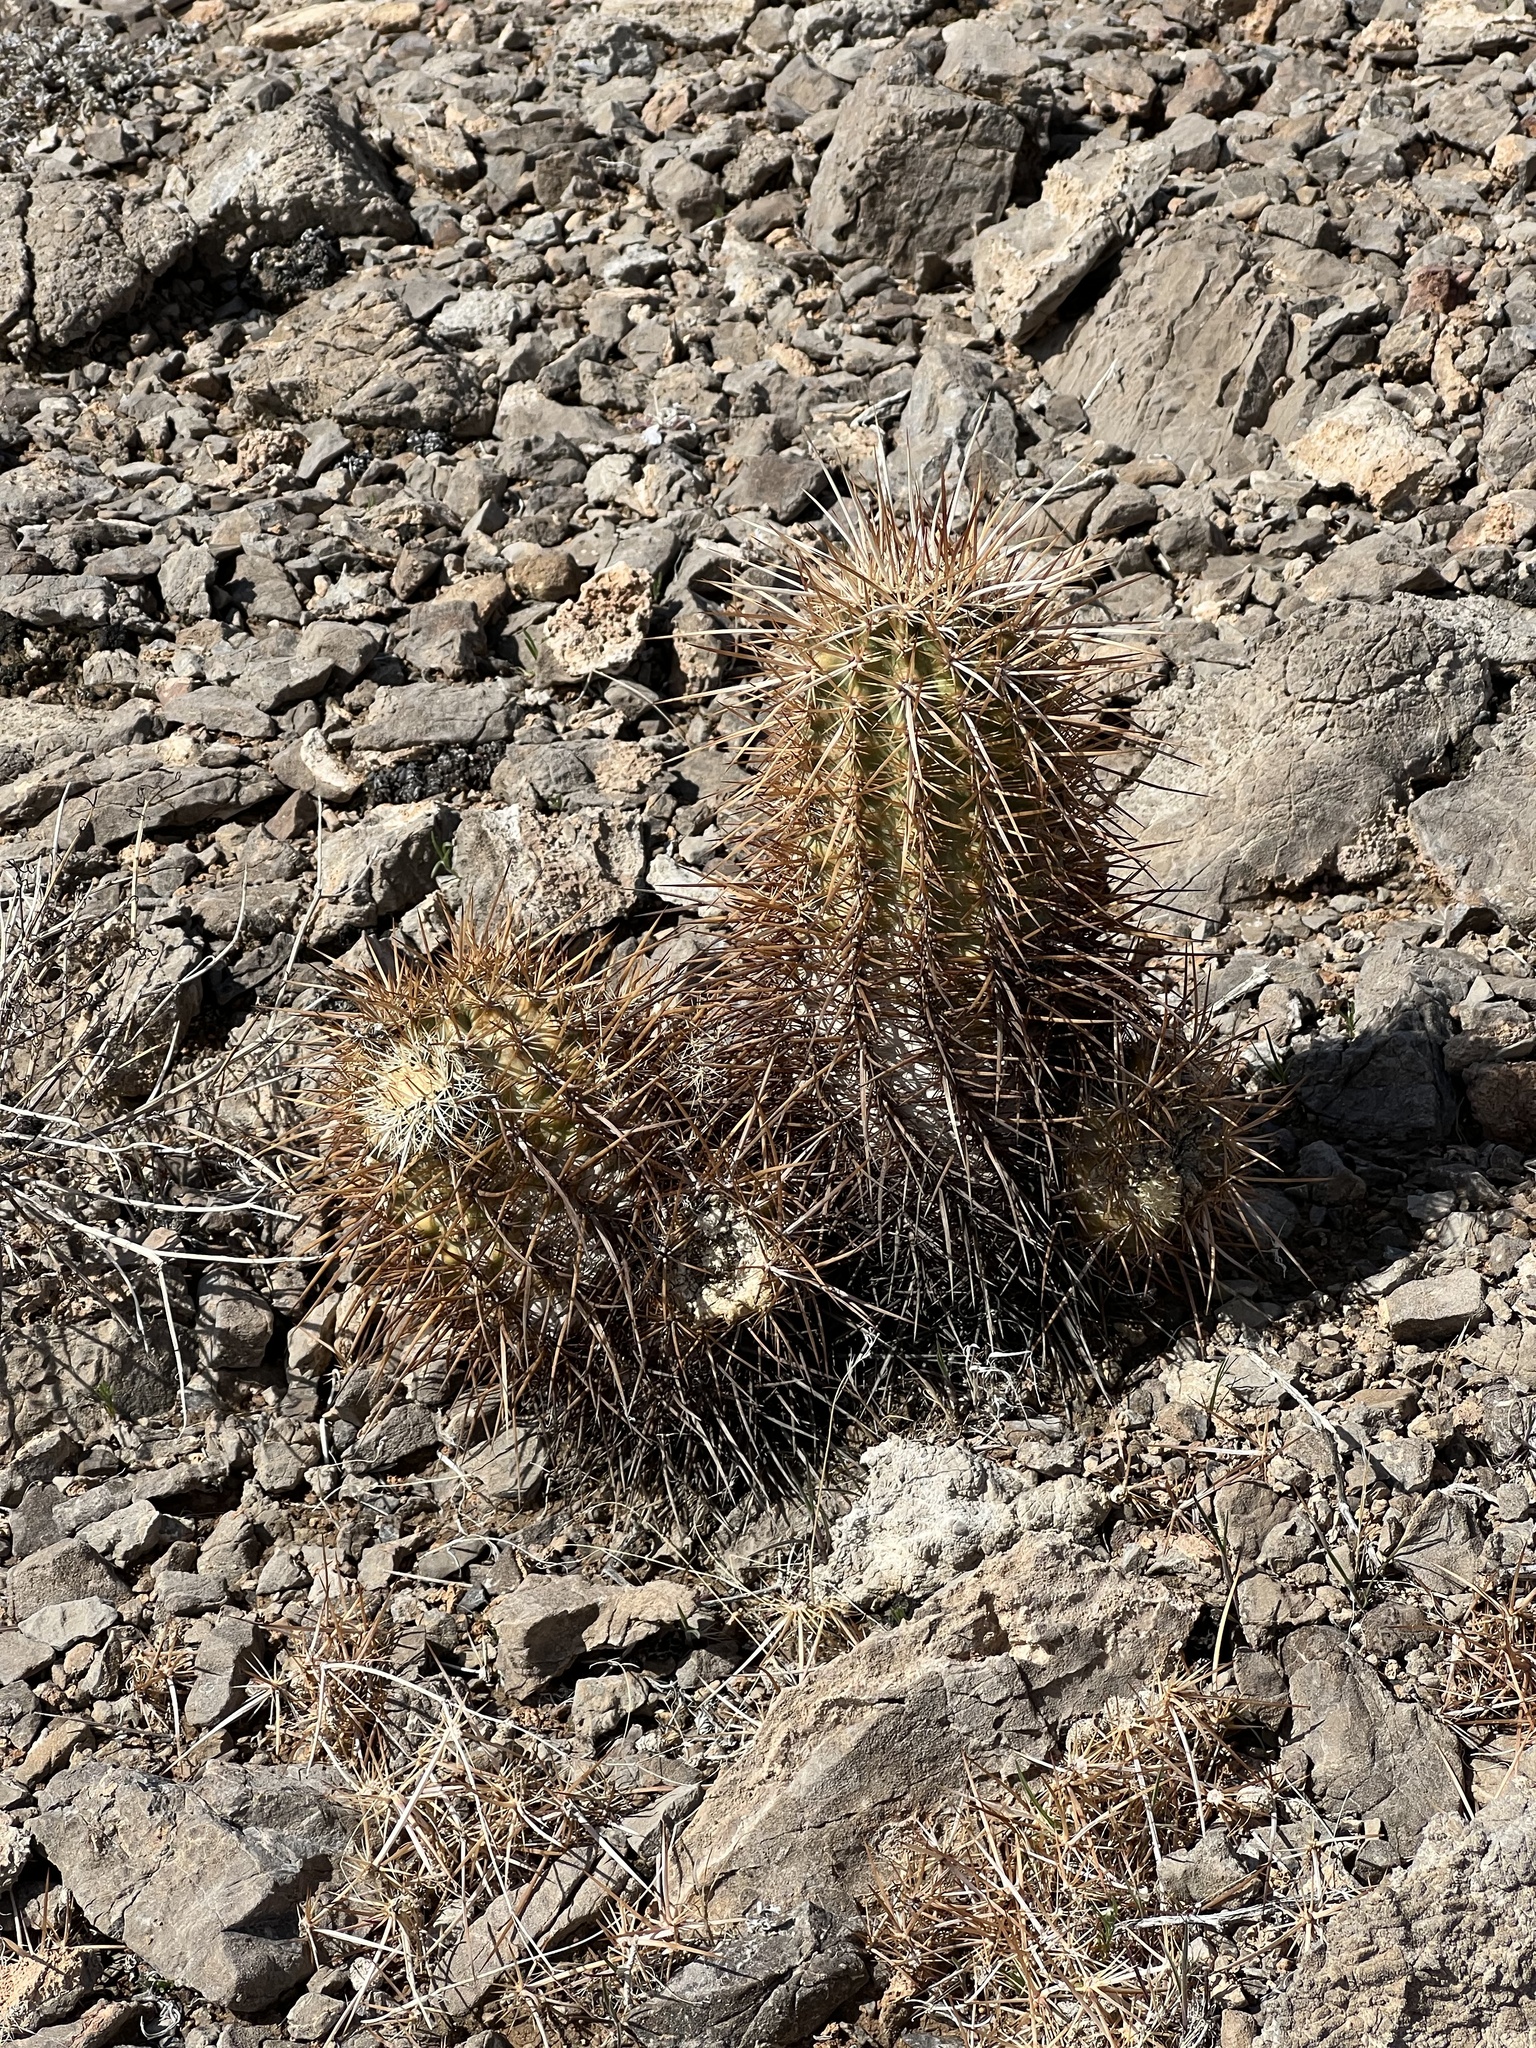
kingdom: Plantae
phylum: Tracheophyta
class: Magnoliopsida
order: Caryophyllales
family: Cactaceae
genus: Echinocereus
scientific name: Echinocereus engelmannii
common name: Engelmann's hedgehog cactus
